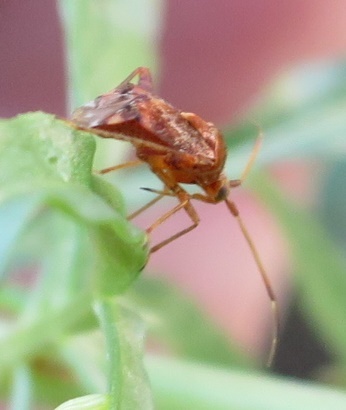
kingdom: Animalia
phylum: Arthropoda
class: Insecta
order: Hemiptera
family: Miridae
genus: Sidnia
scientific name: Sidnia kinbergi
